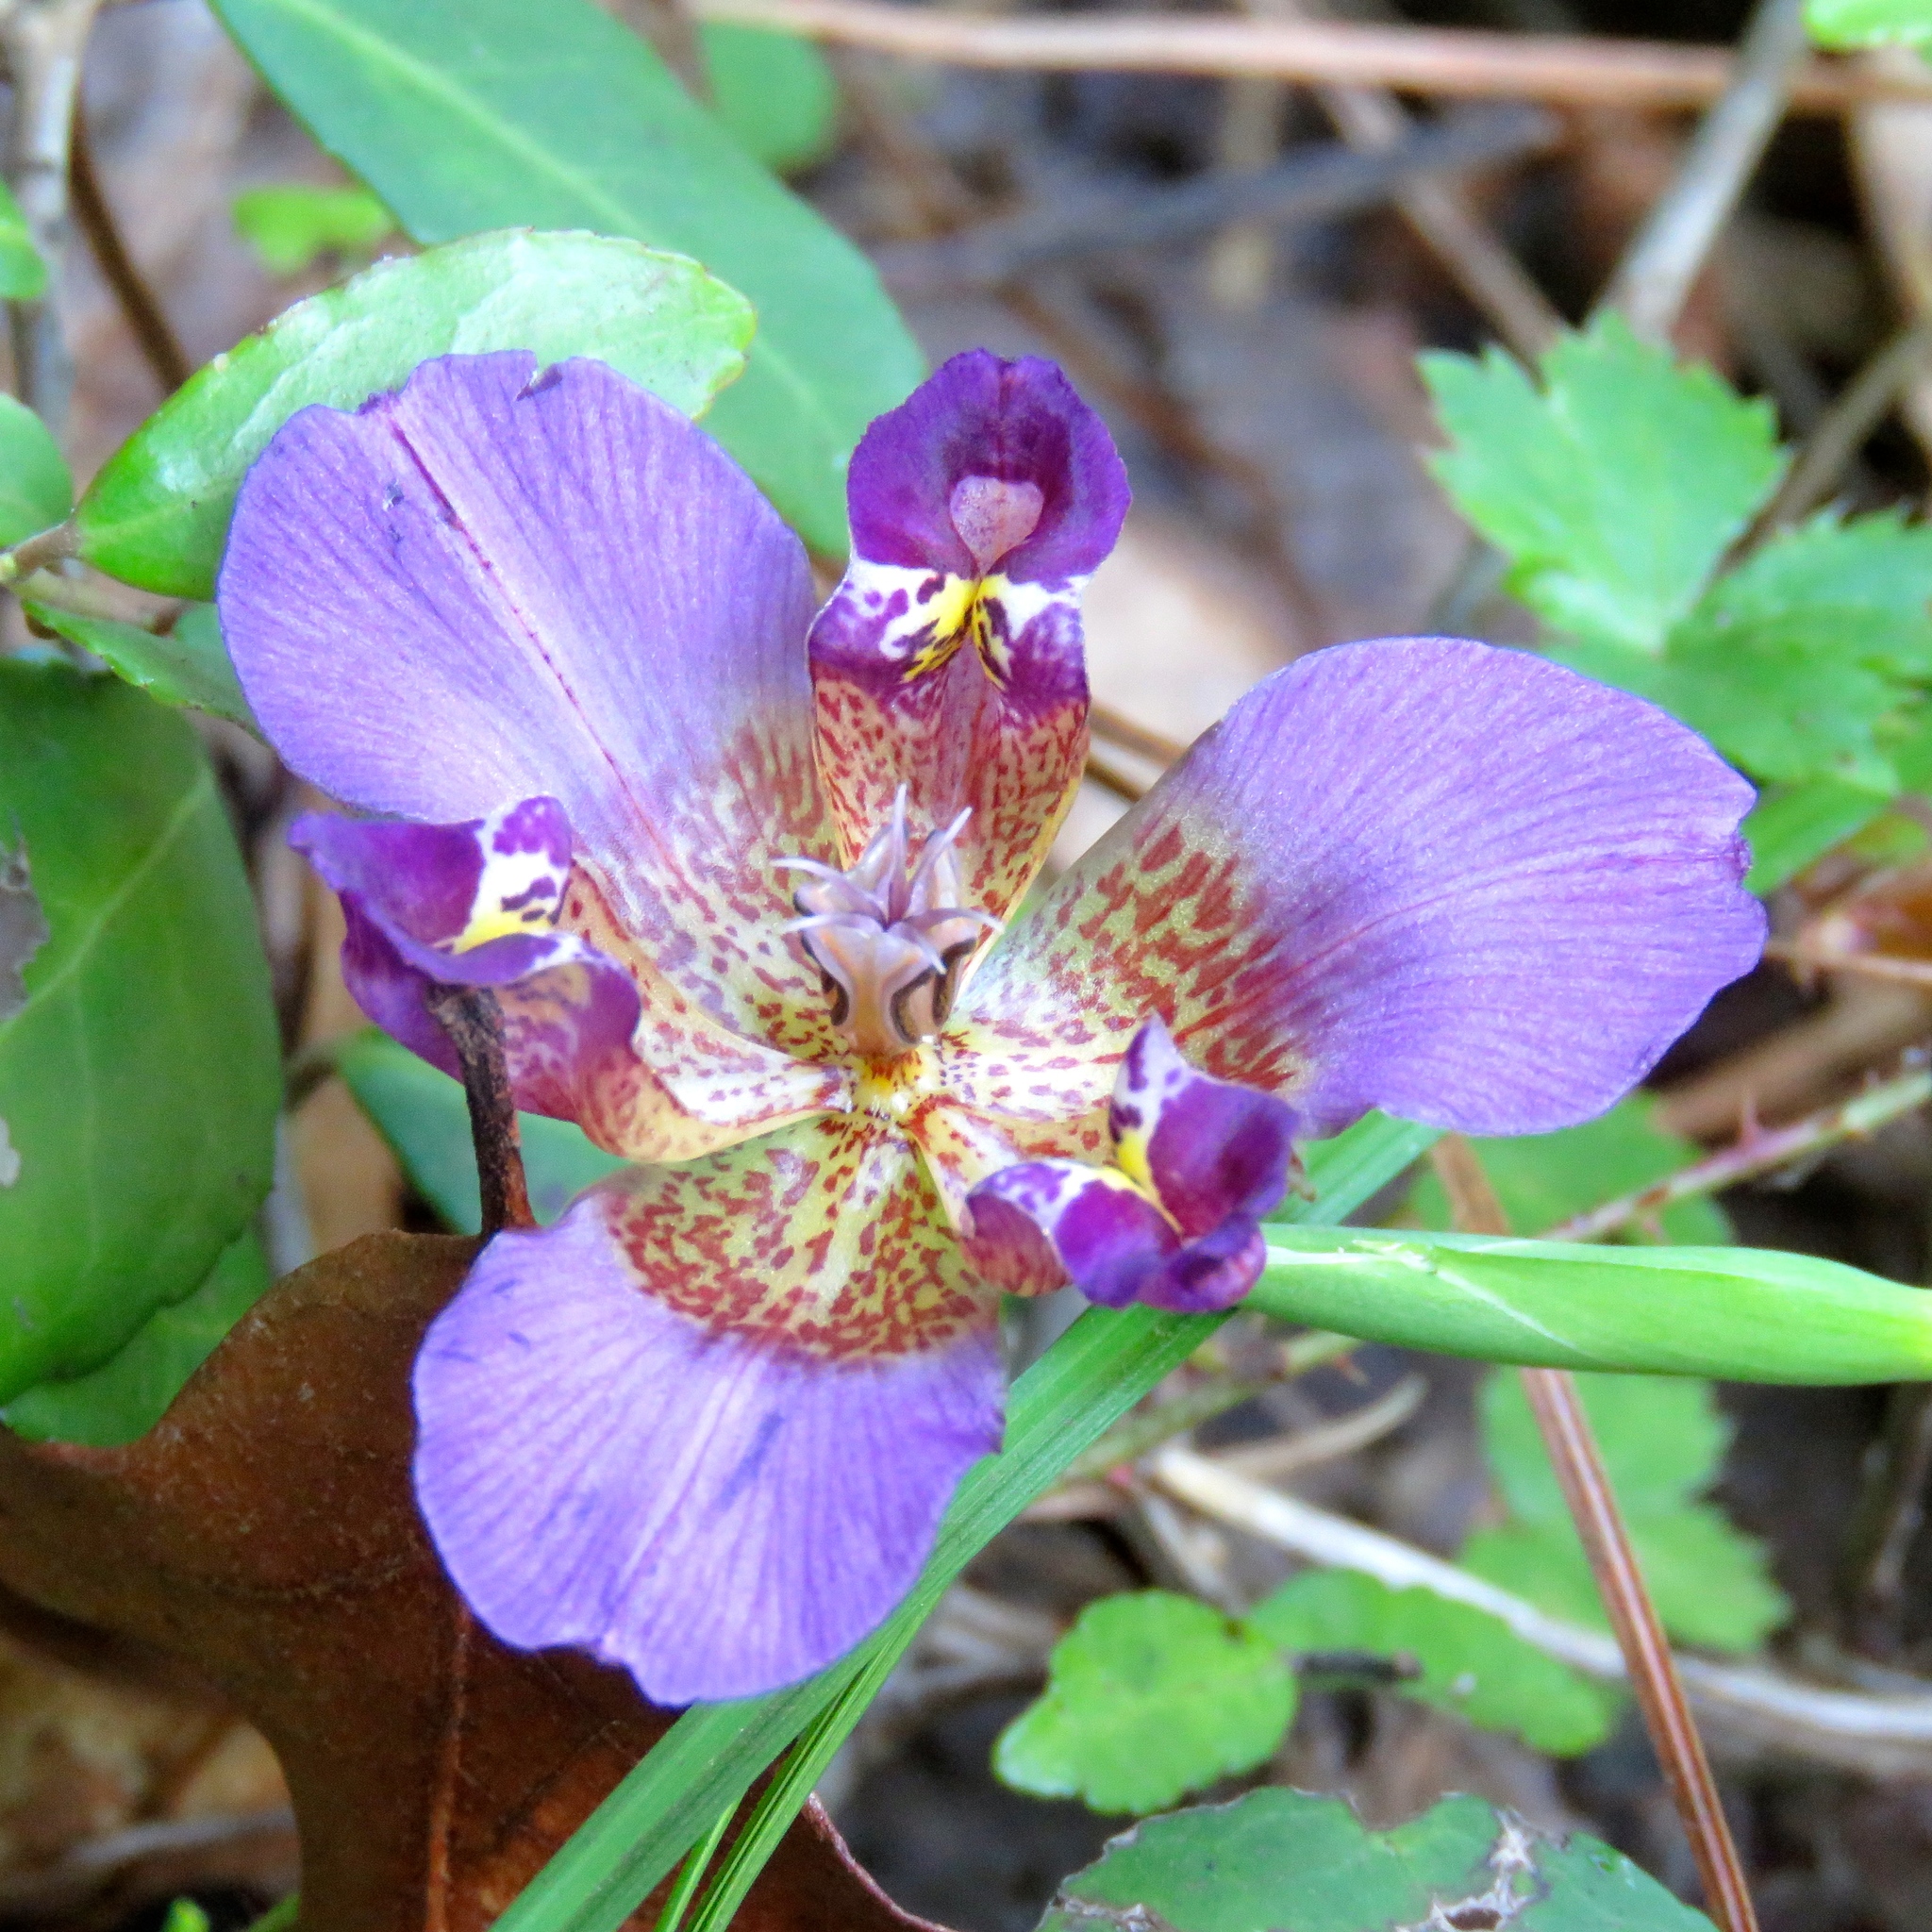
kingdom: Plantae
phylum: Tracheophyta
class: Liliopsida
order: Asparagales
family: Iridaceae
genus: Alophia
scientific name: Alophia drummondii
